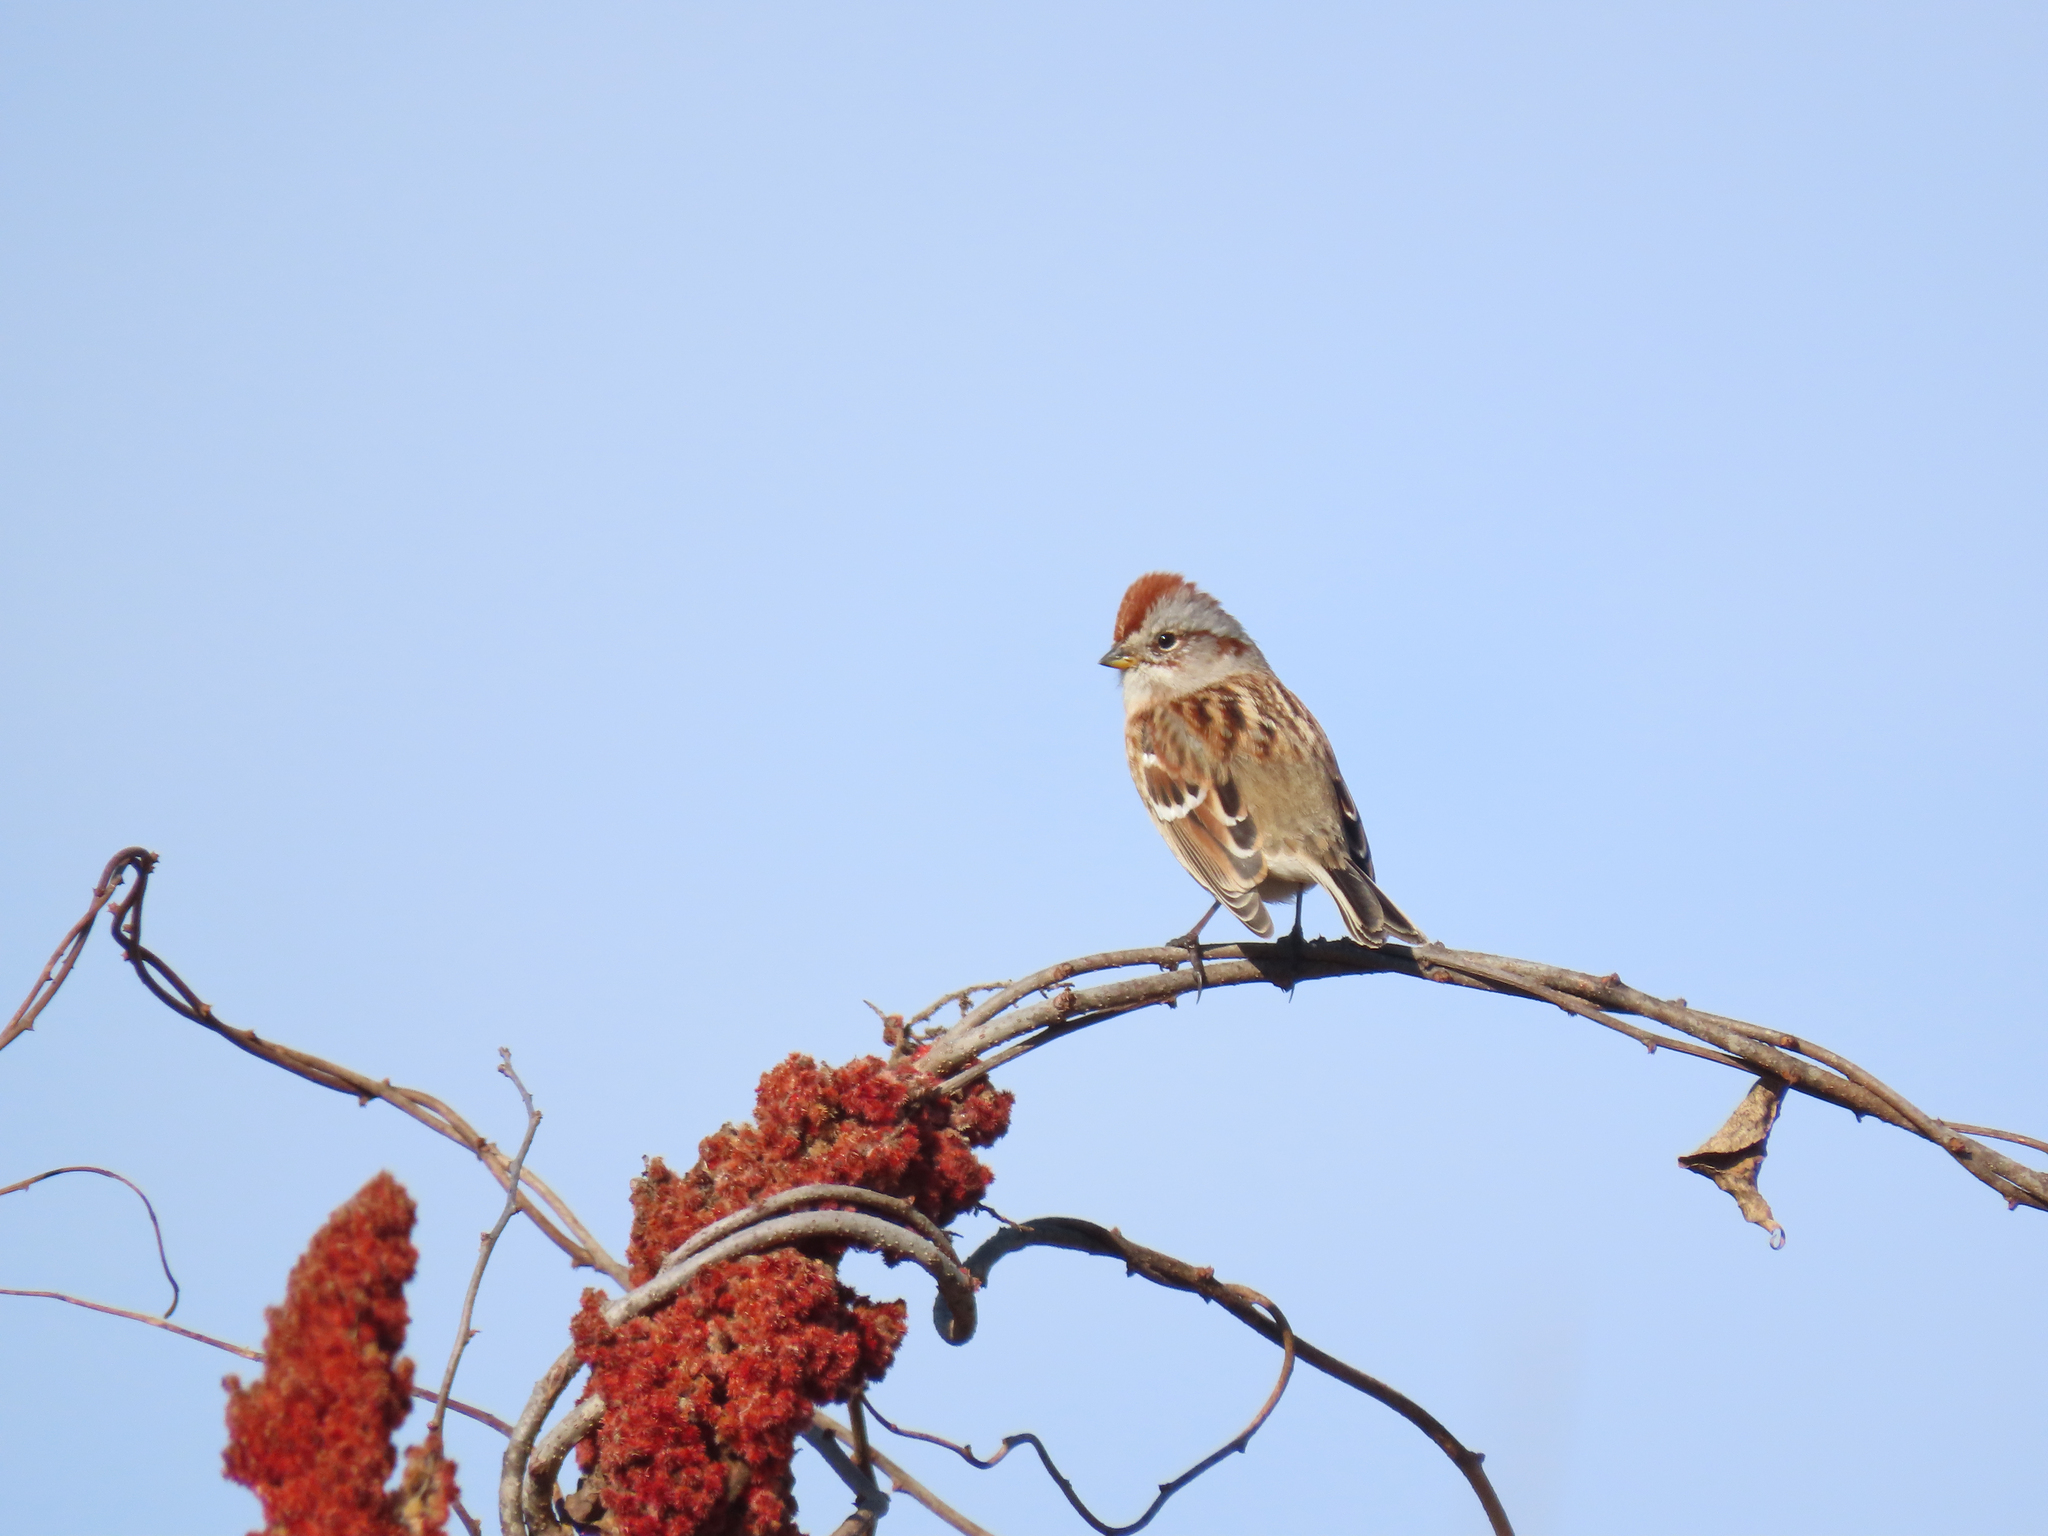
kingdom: Animalia
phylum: Chordata
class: Aves
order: Passeriformes
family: Passerellidae
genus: Spizelloides
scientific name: Spizelloides arborea
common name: American tree sparrow
